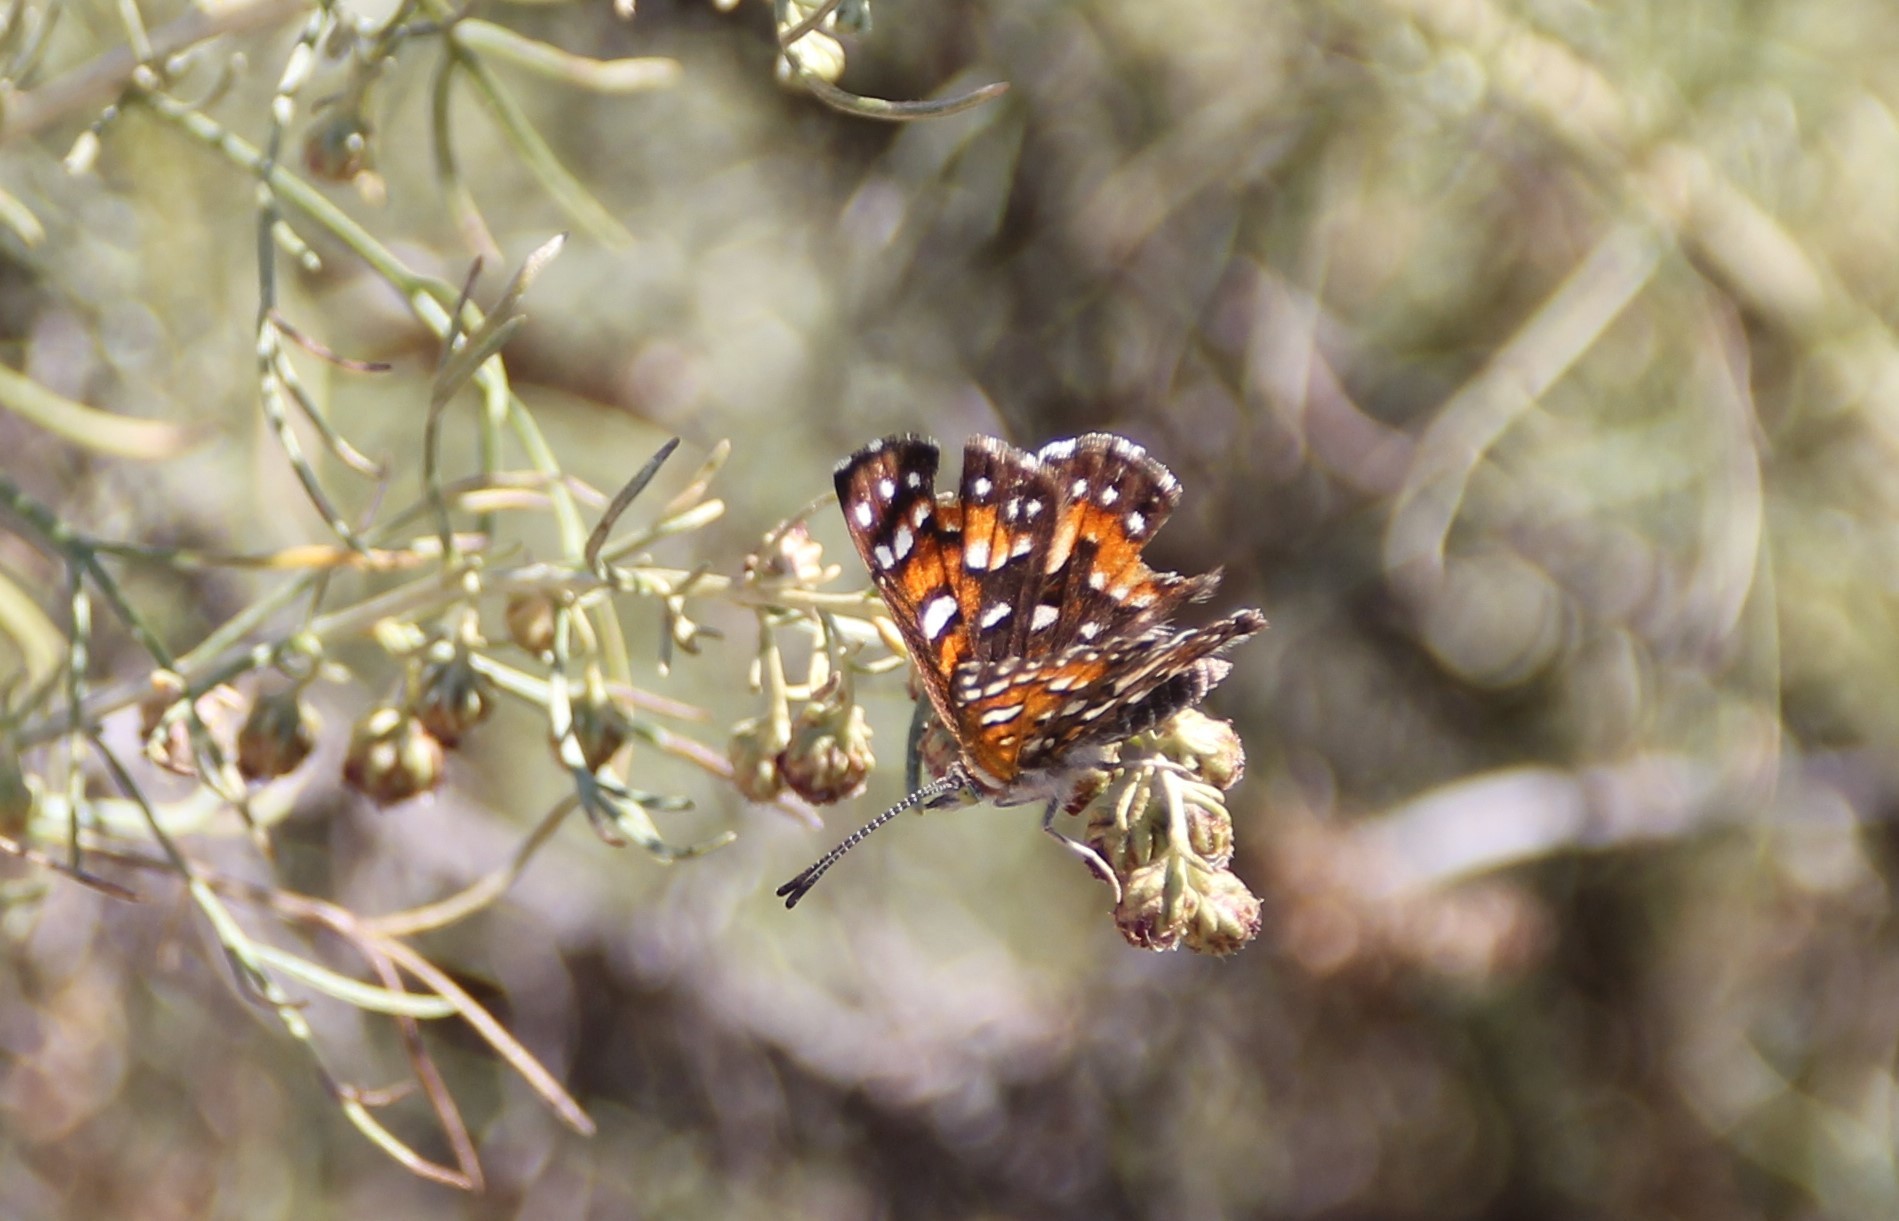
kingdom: Animalia
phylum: Arthropoda
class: Insecta
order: Lepidoptera
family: Riodinidae
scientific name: Riodinidae
